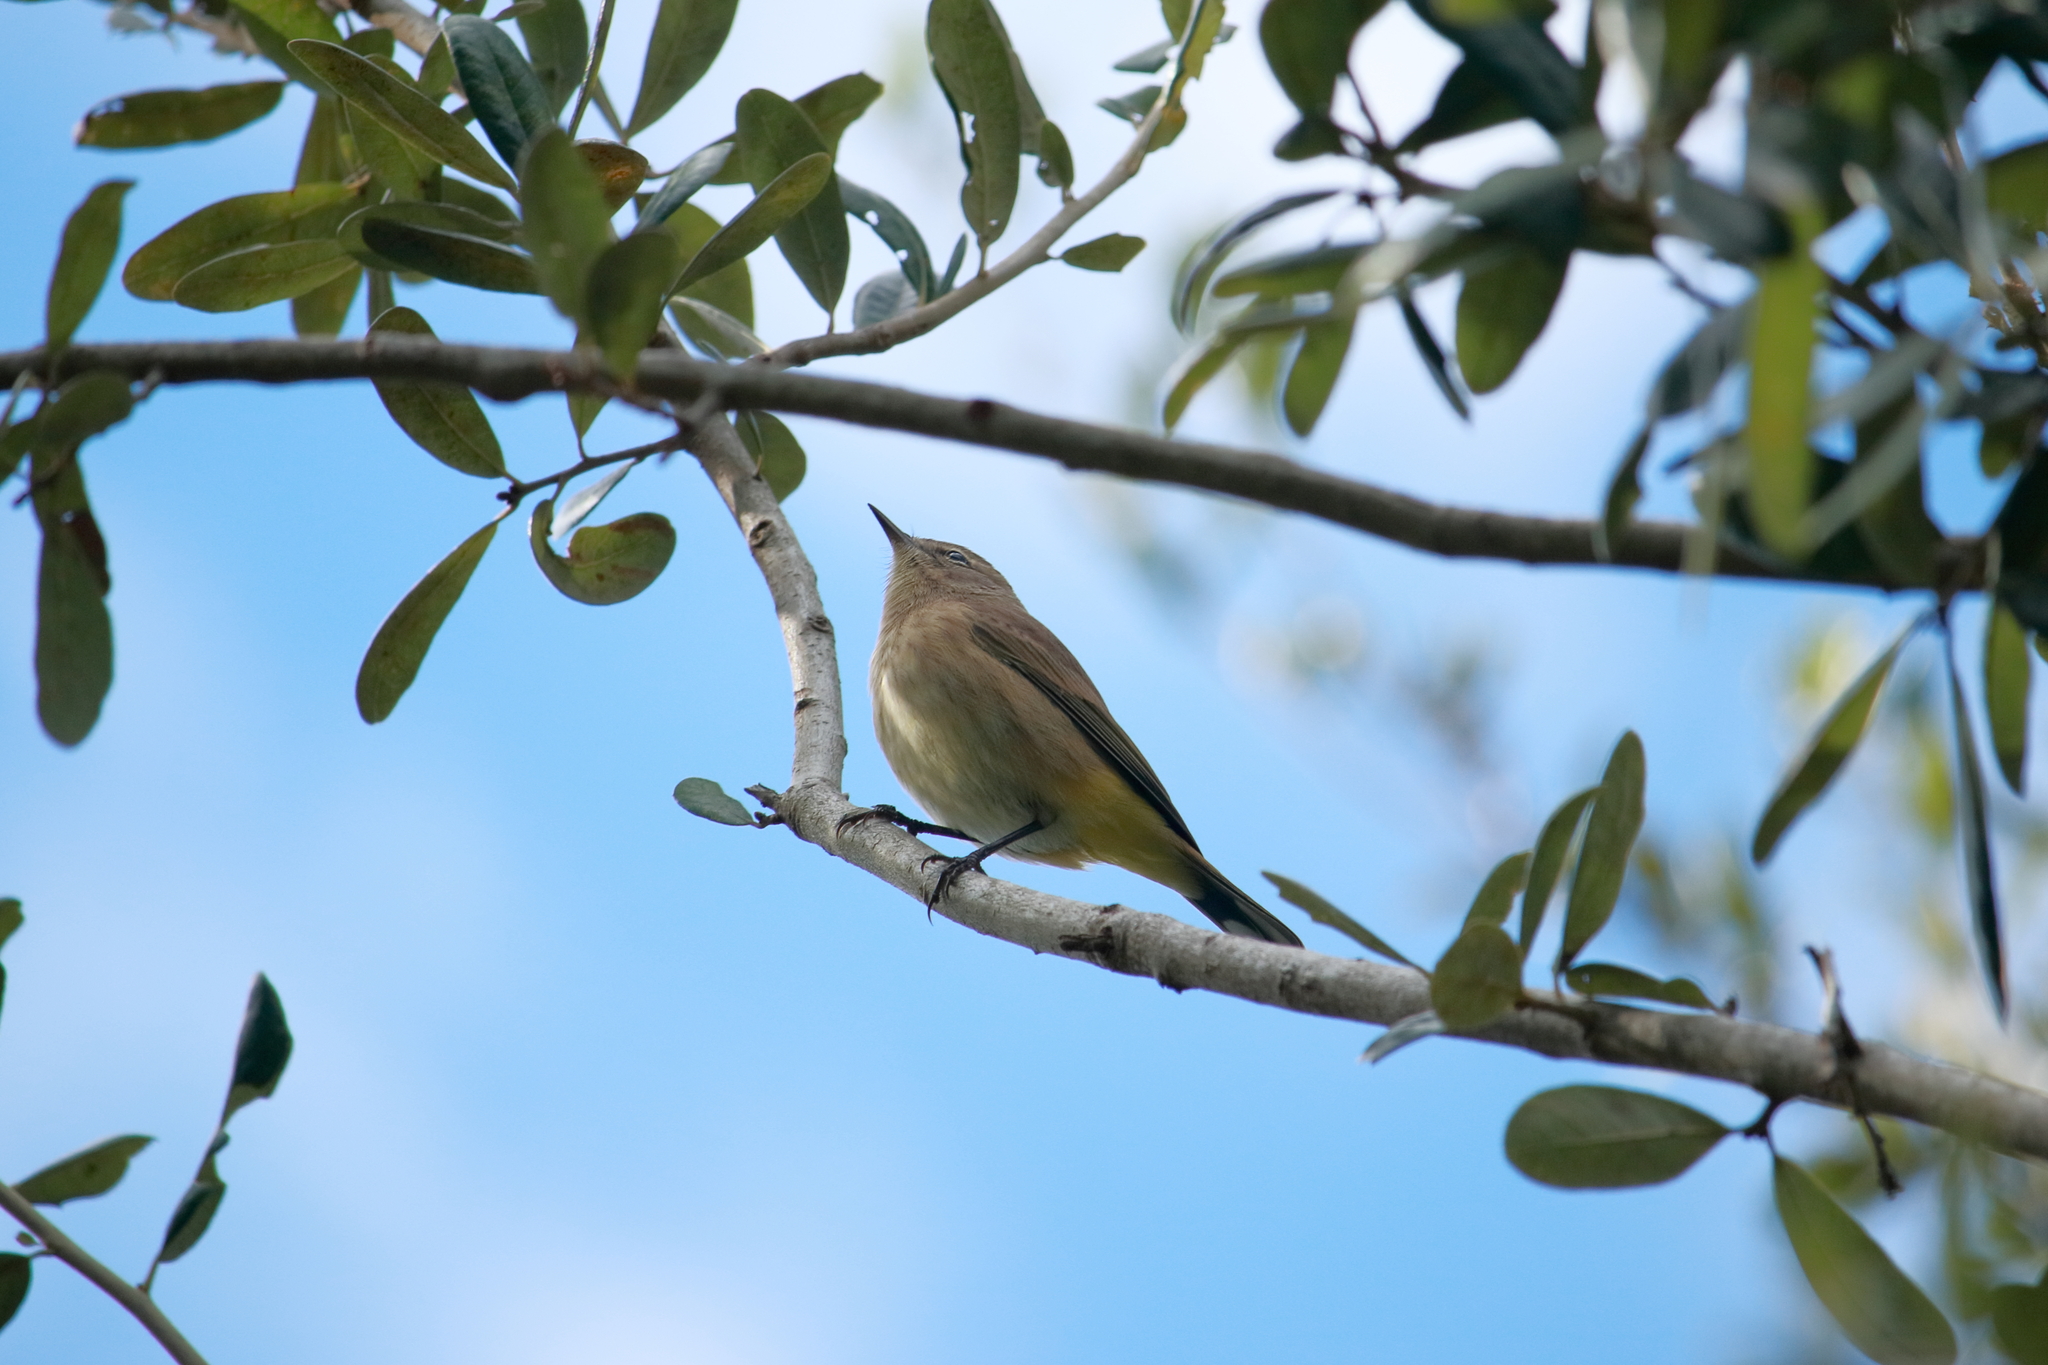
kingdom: Animalia
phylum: Chordata
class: Aves
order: Passeriformes
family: Parulidae
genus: Setophaga
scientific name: Setophaga palmarum
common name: Palm warbler
